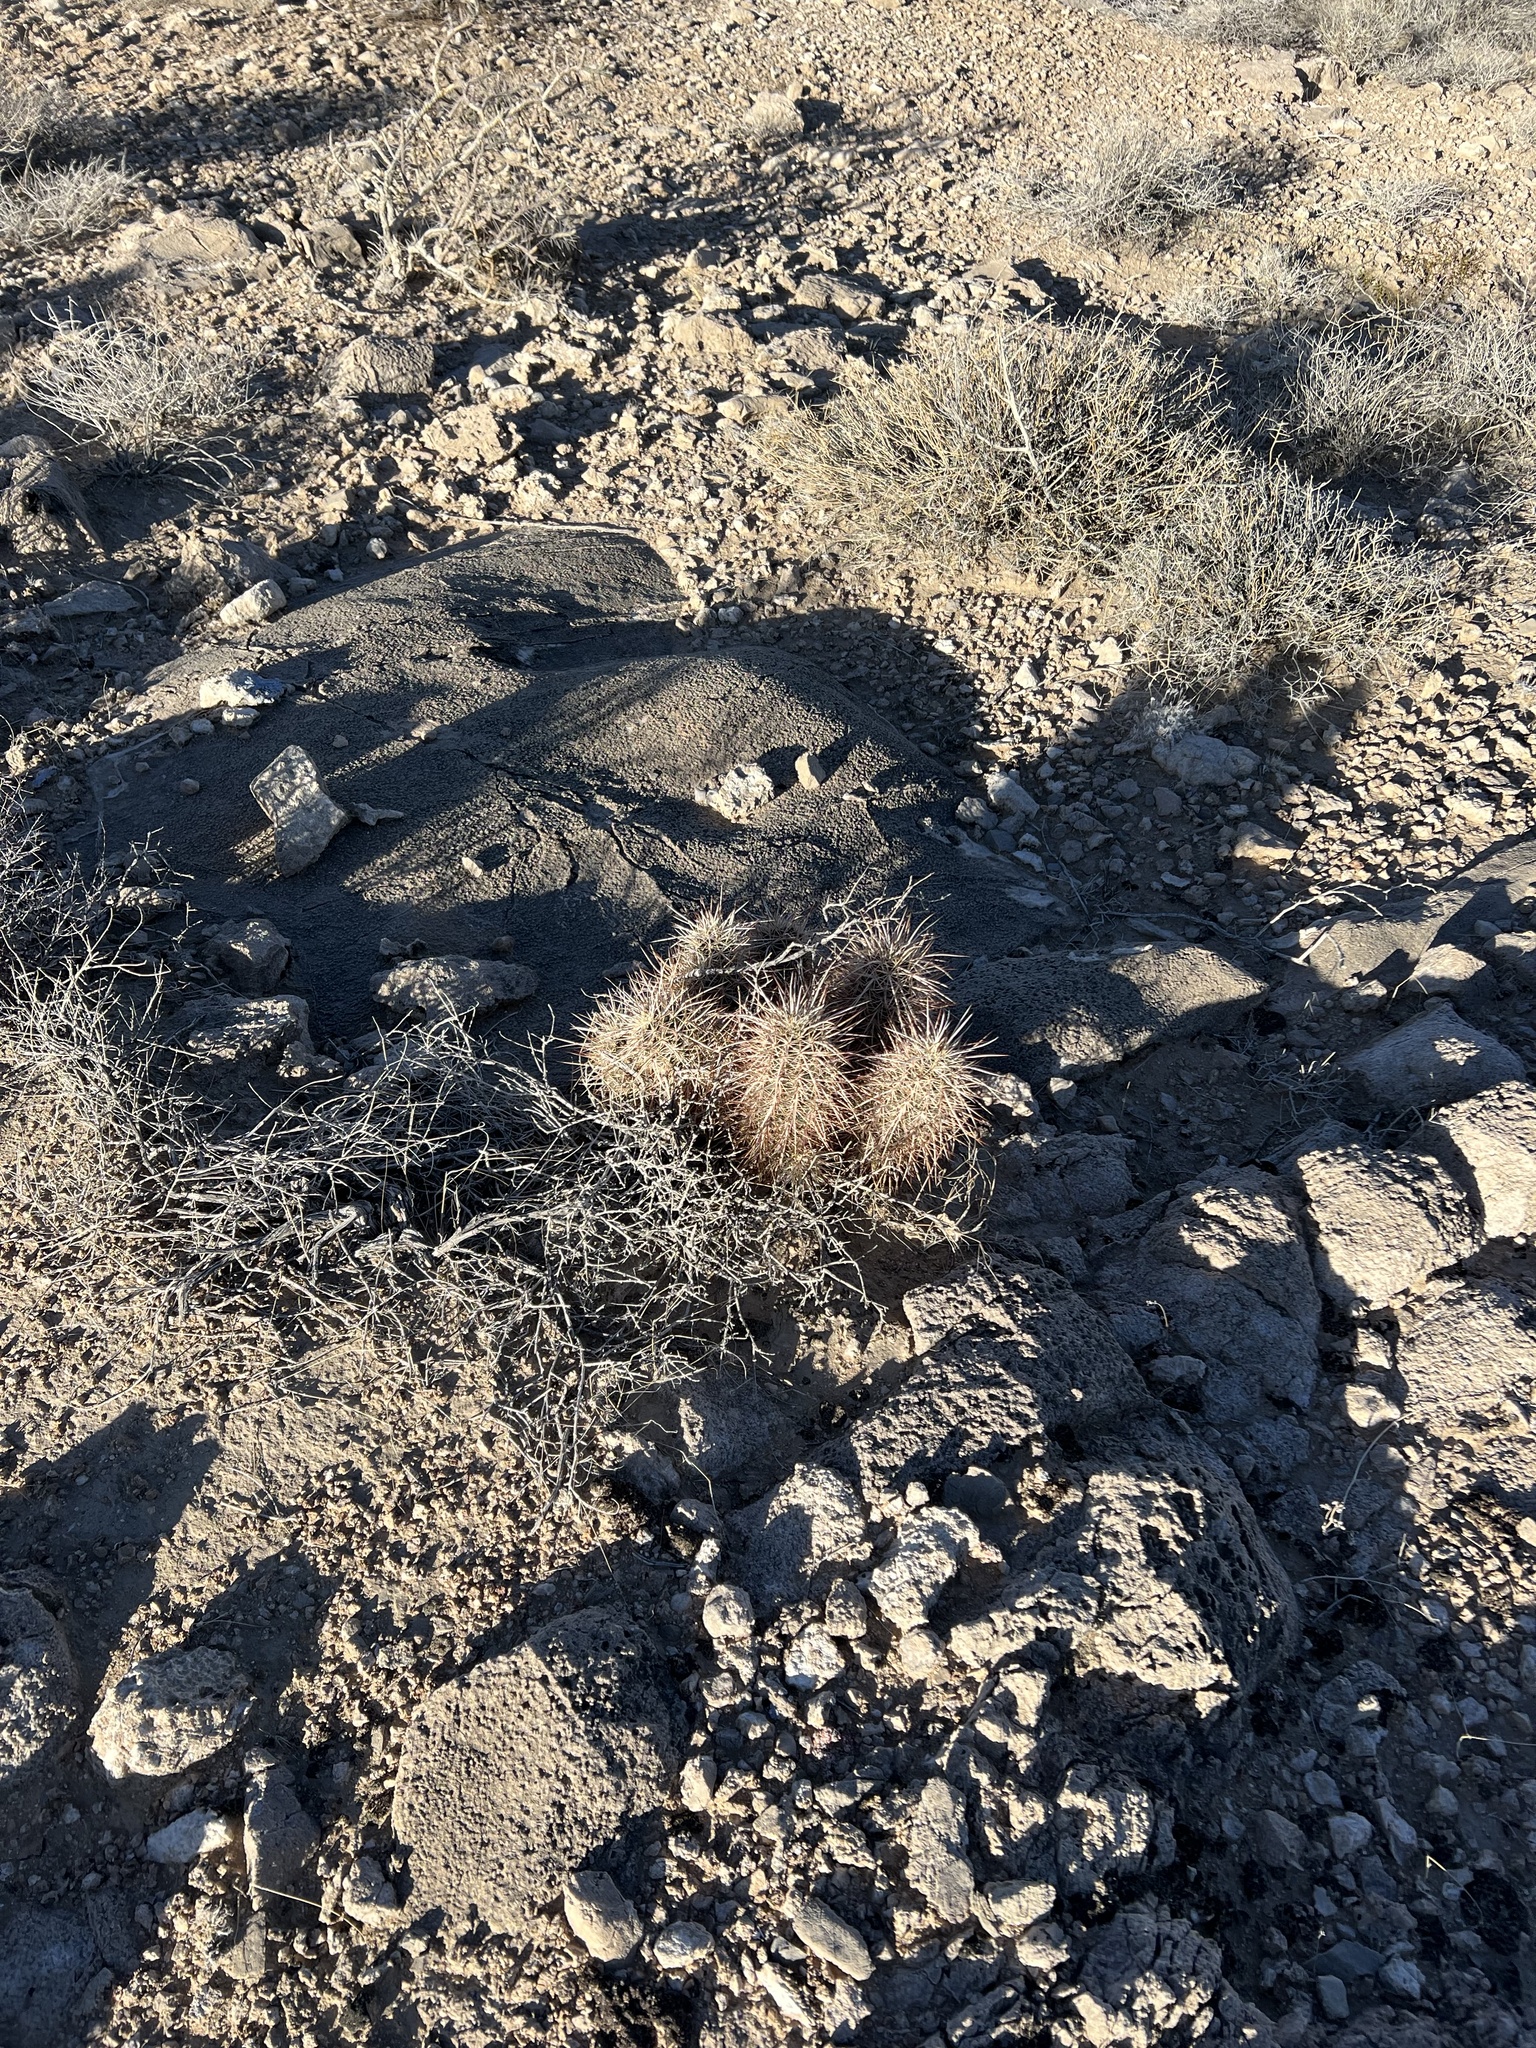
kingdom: Plantae
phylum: Tracheophyta
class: Magnoliopsida
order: Caryophyllales
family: Cactaceae
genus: Echinocereus
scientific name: Echinocereus engelmannii
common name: Engelmann's hedgehog cactus
